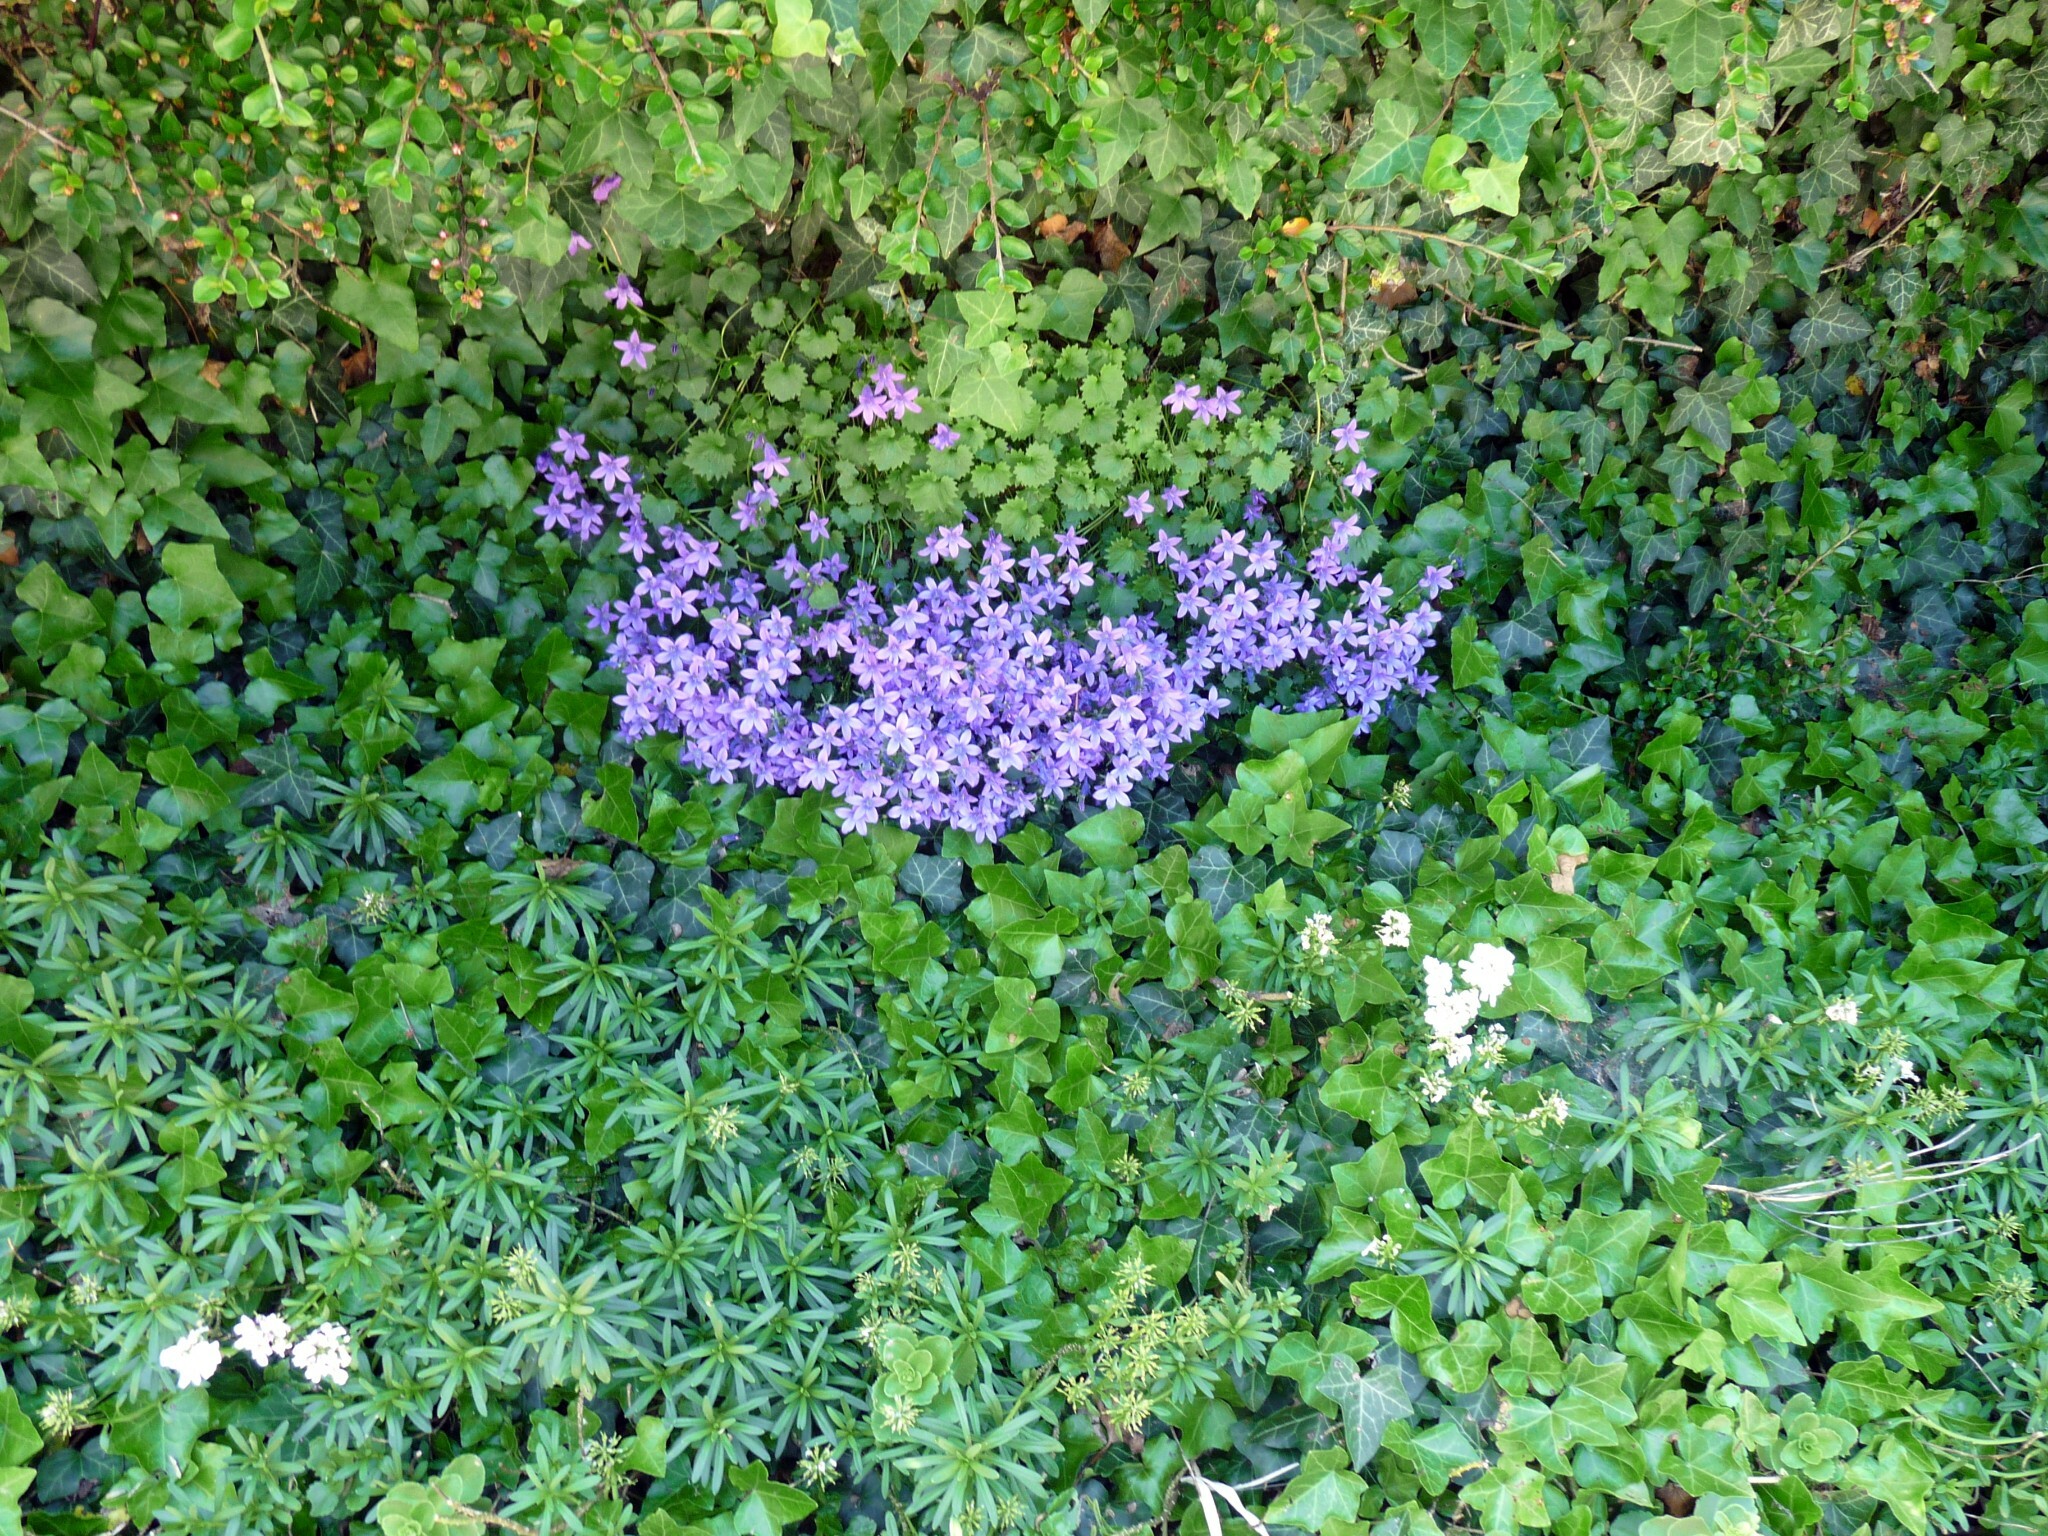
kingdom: Plantae
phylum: Tracheophyta
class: Magnoliopsida
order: Asterales
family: Campanulaceae
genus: Campanula
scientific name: Campanula poscharskyana
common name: Trailing bellflower
